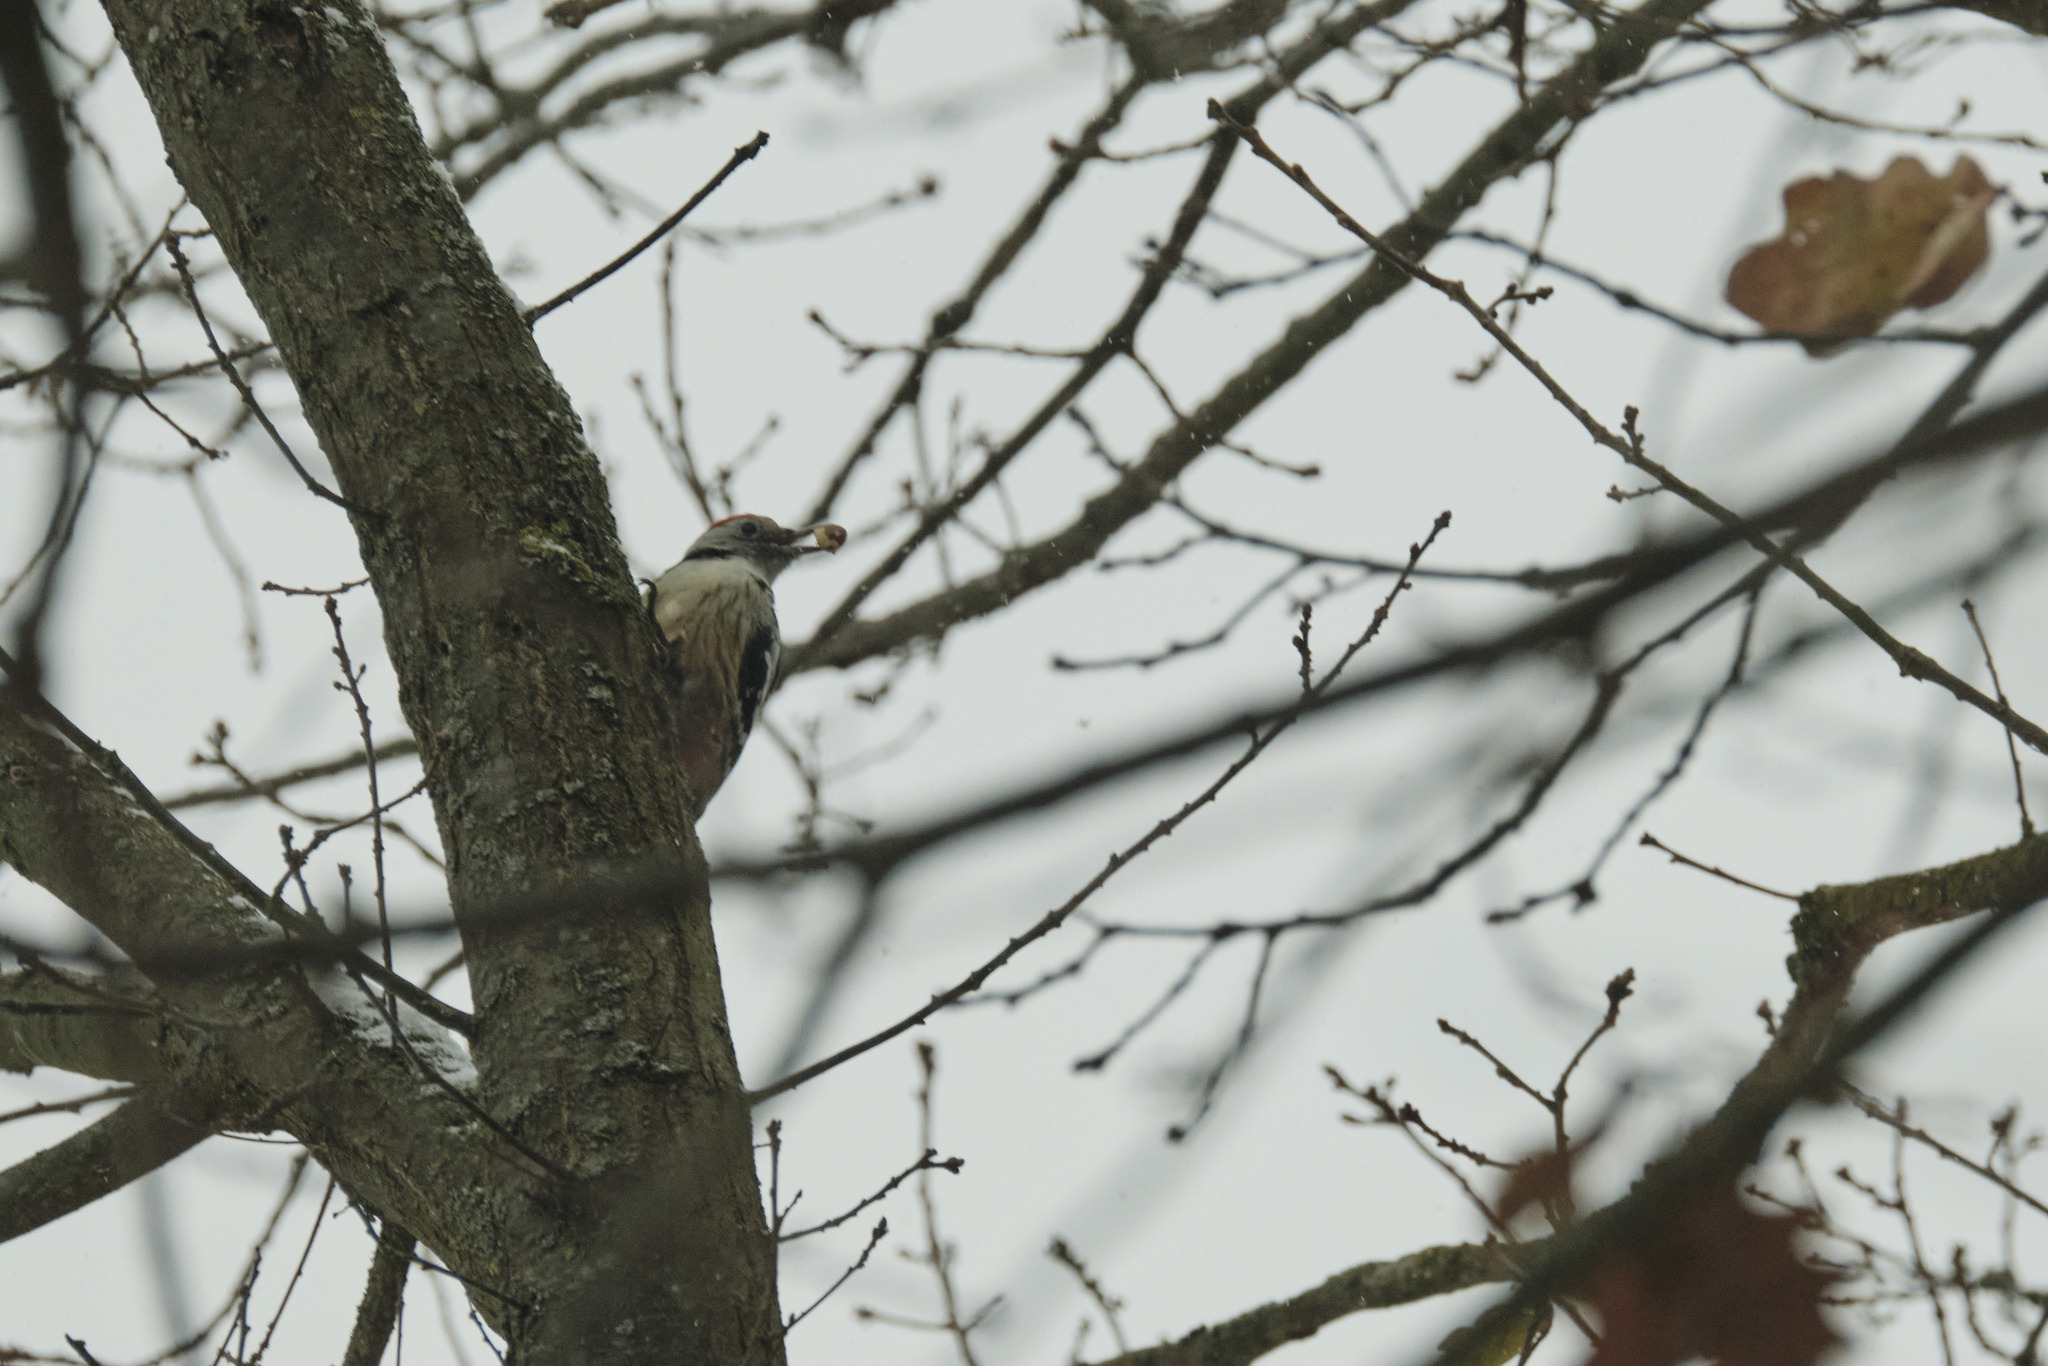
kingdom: Animalia
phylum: Chordata
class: Aves
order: Piciformes
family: Picidae
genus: Dendrocoptes
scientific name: Dendrocoptes medius
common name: Middle spotted woodpecker
